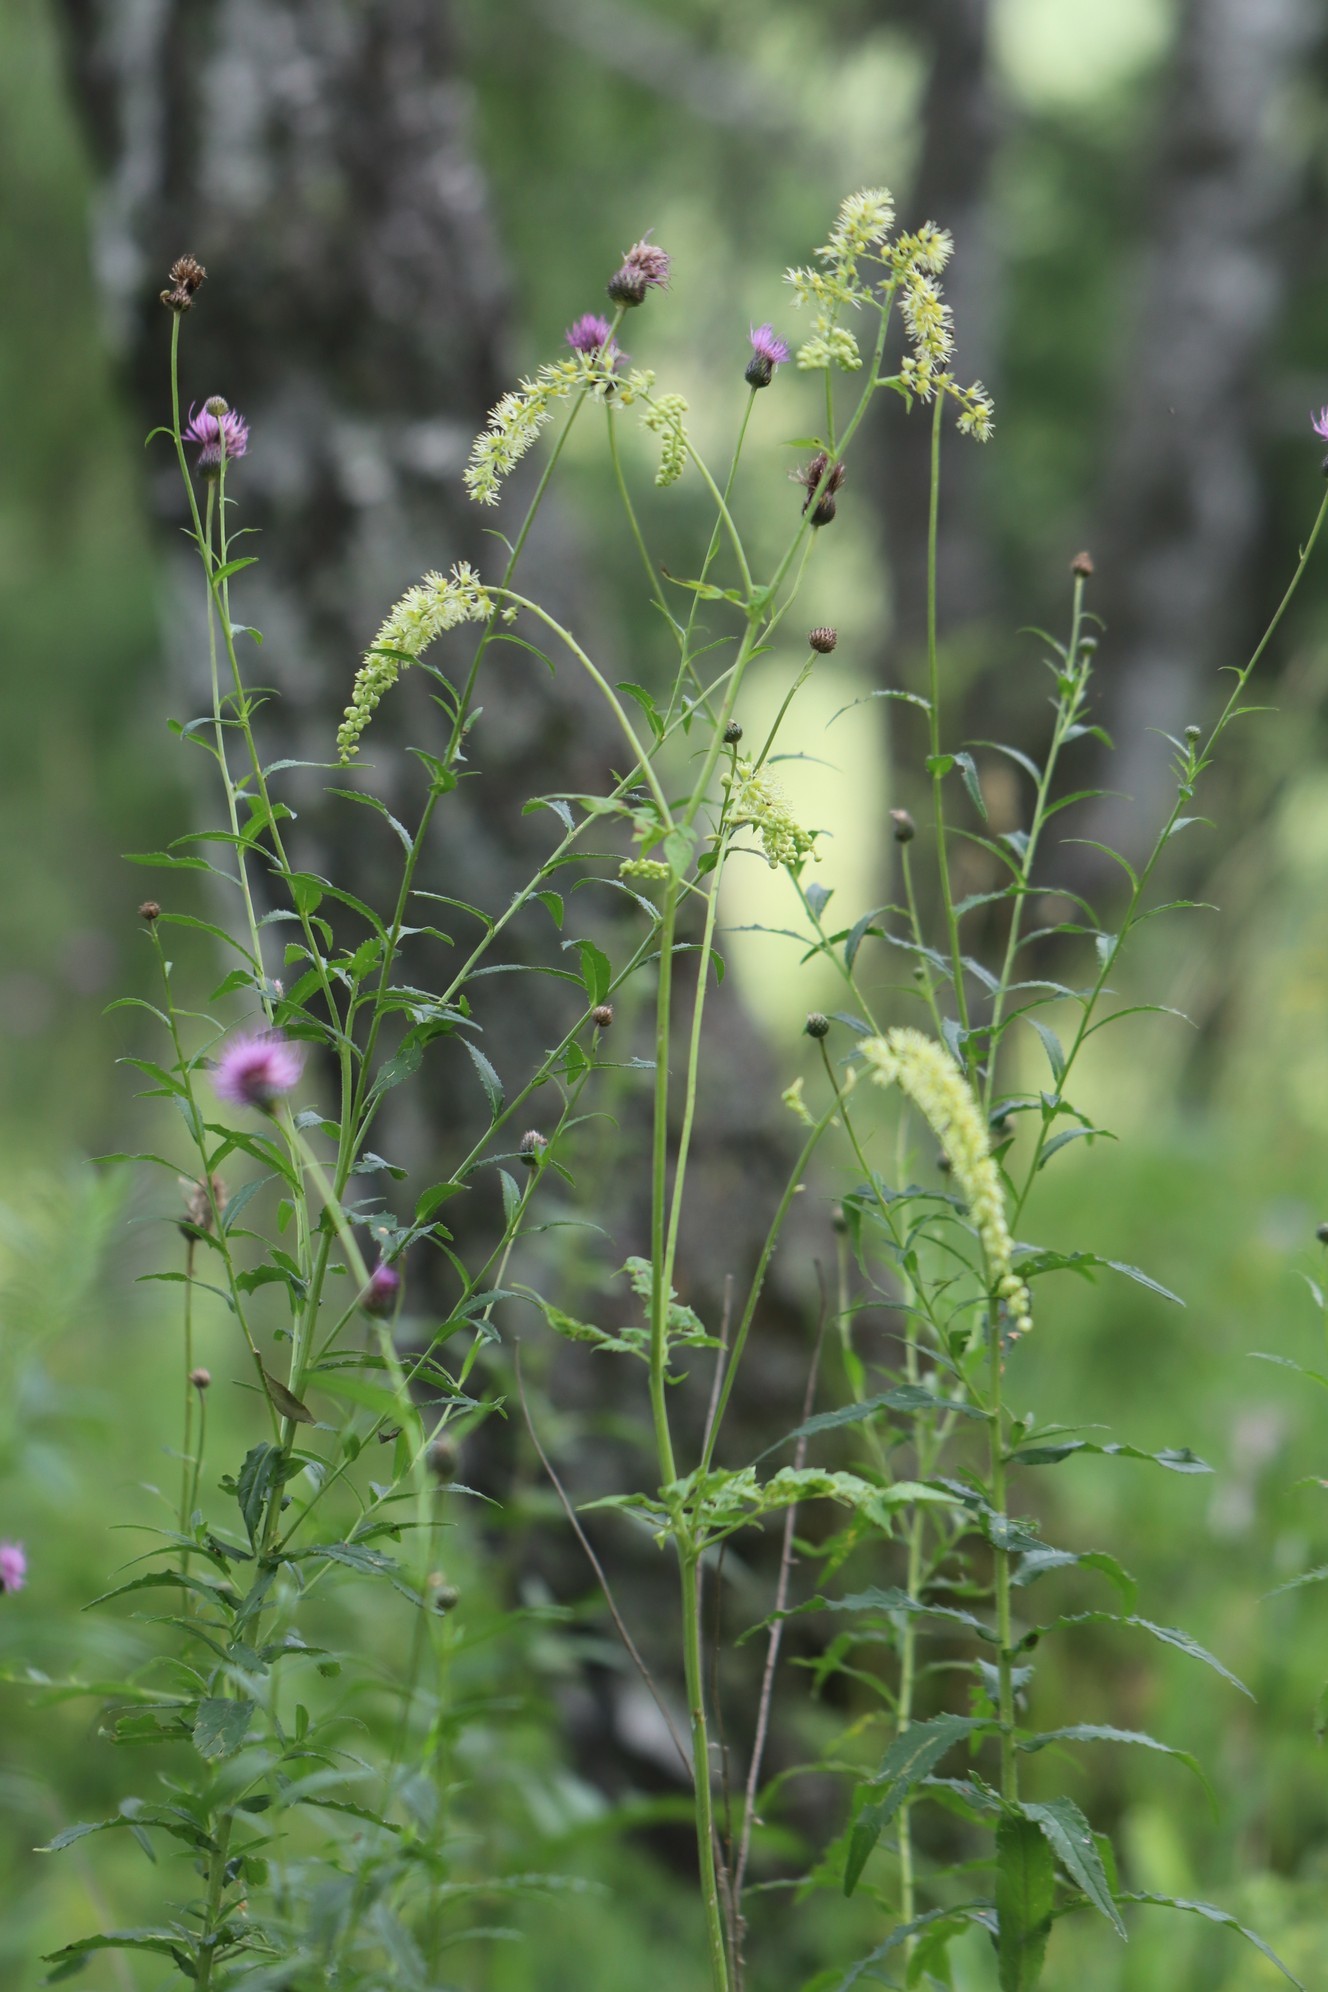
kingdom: Plantae
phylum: Tracheophyta
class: Magnoliopsida
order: Ranunculales
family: Ranunculaceae
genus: Actaea
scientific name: Actaea cimicifuga
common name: Chinese cimicifuga
